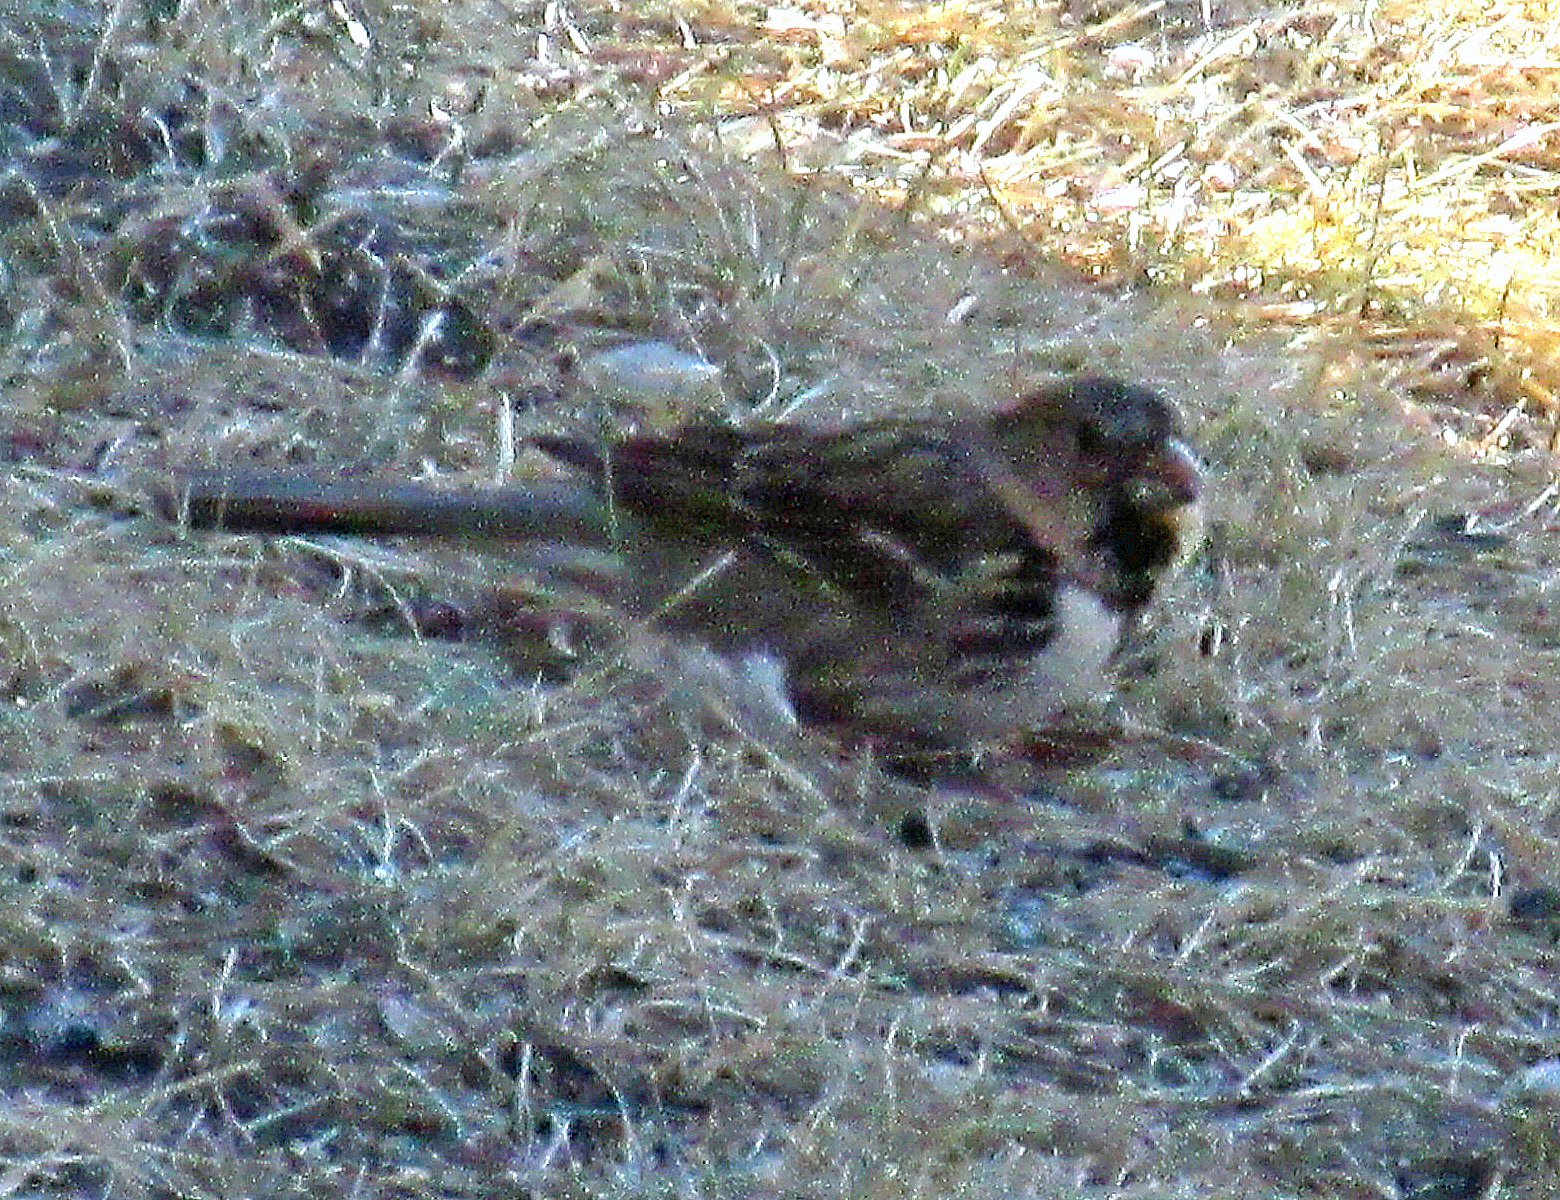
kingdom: Animalia
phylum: Chordata
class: Aves
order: Passeriformes
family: Passerellidae
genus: Zonotrichia
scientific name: Zonotrichia querula
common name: Harris's sparrow
